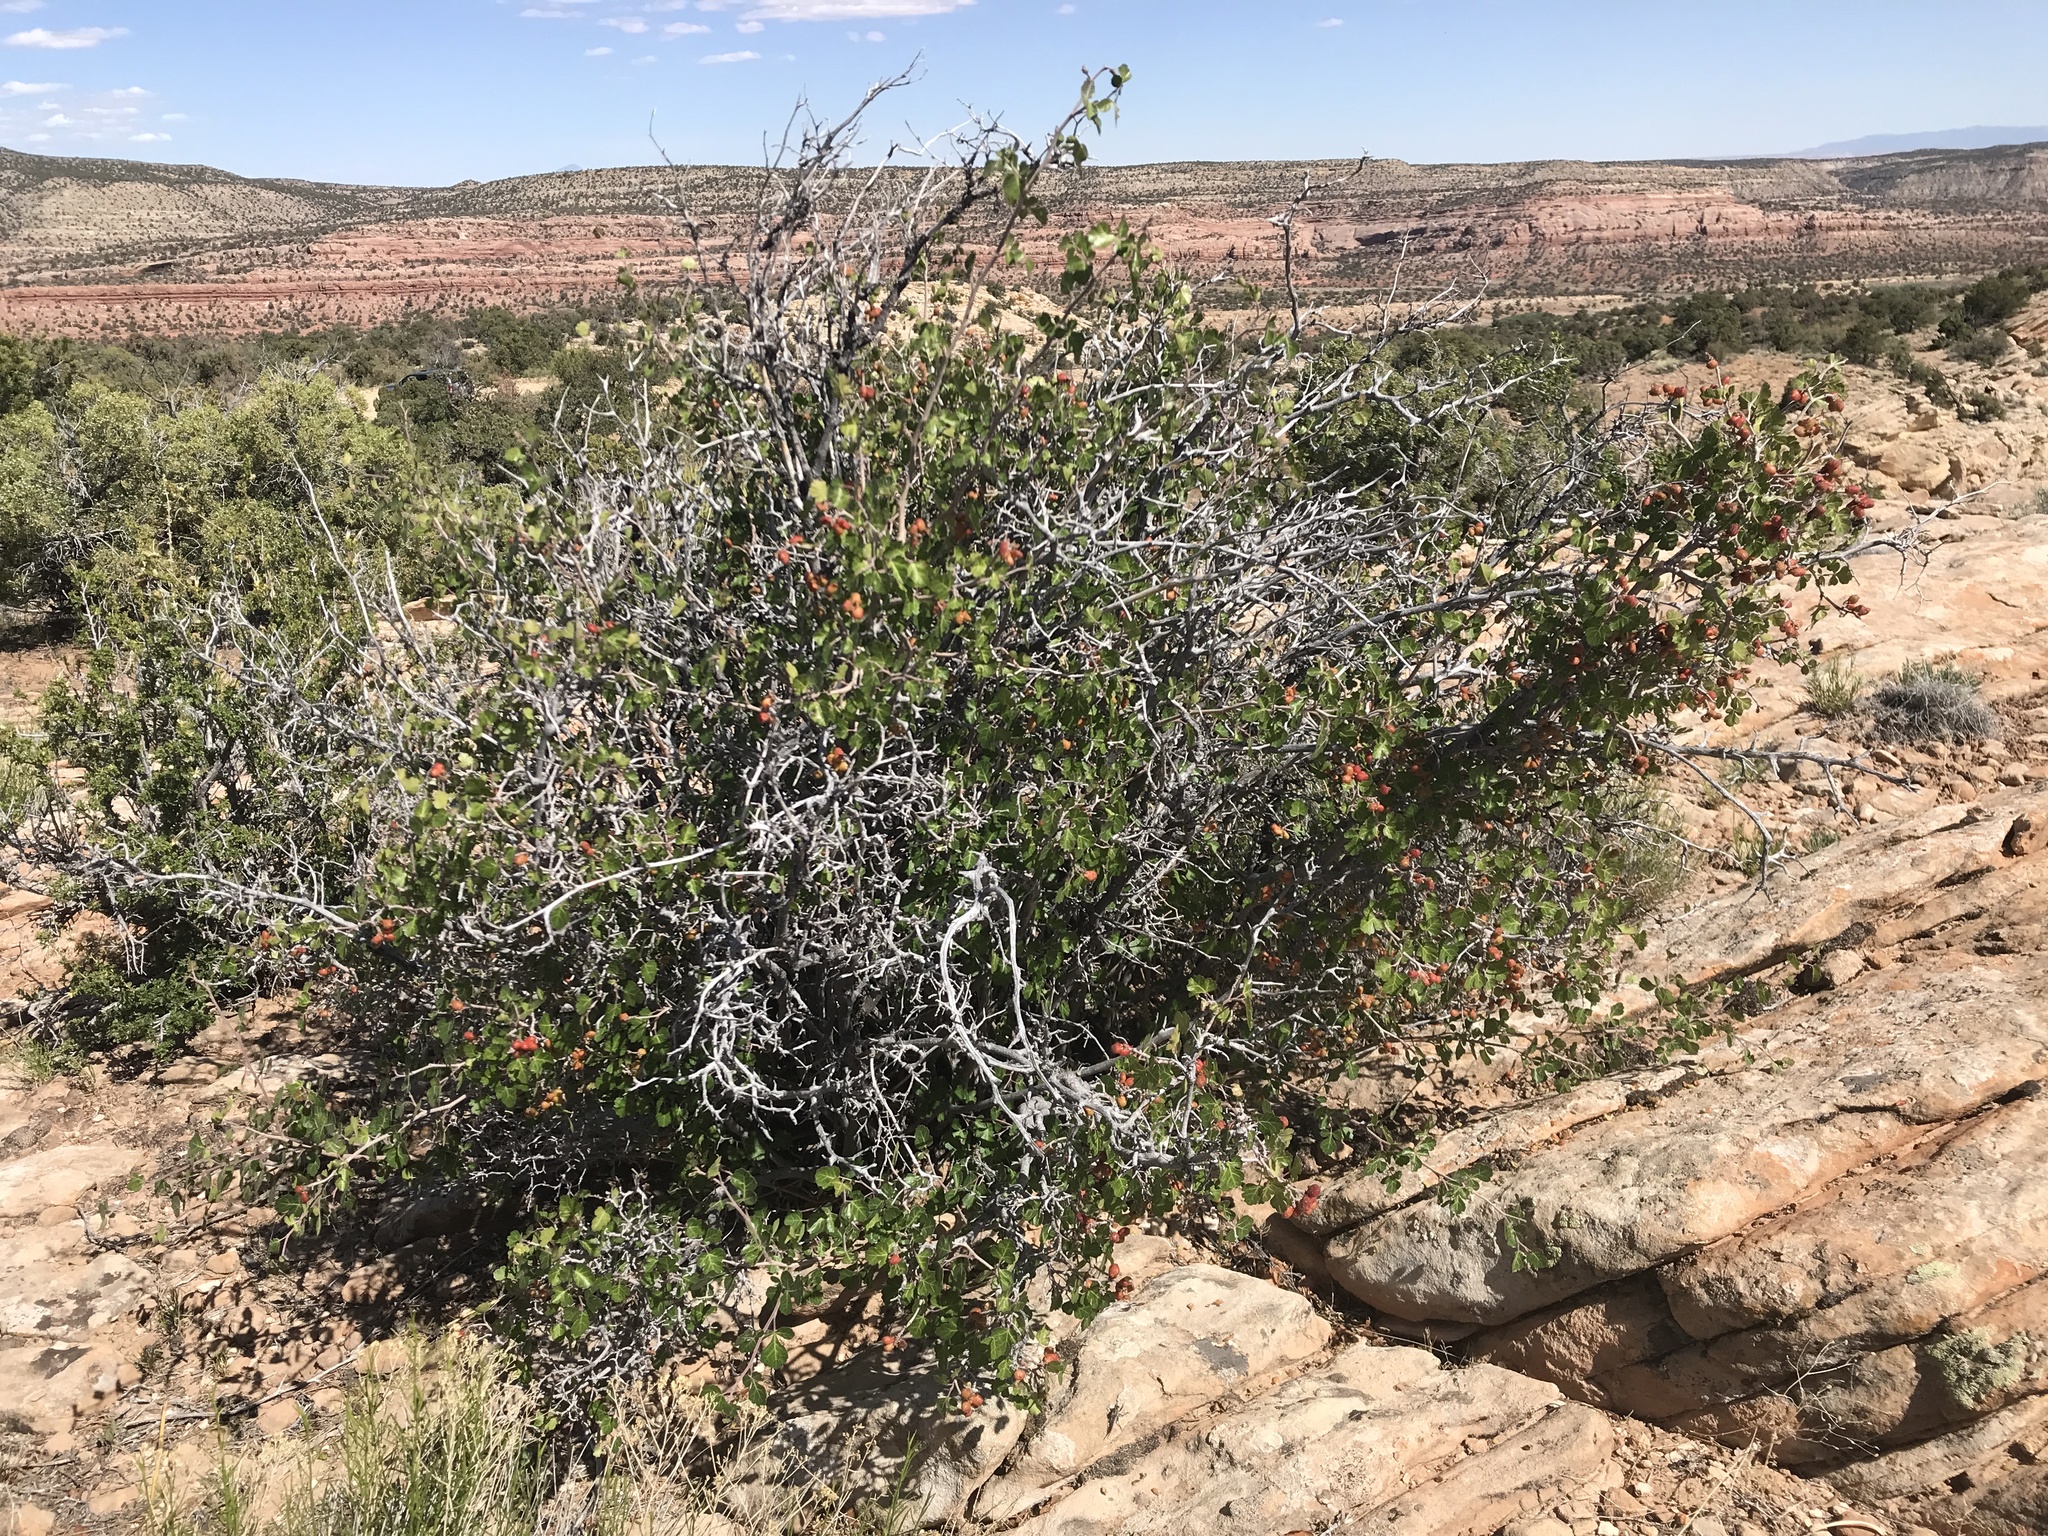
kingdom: Plantae
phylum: Tracheophyta
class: Magnoliopsida
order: Sapindales
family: Anacardiaceae
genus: Rhus
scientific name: Rhus aromatica
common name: Aromatic sumac
